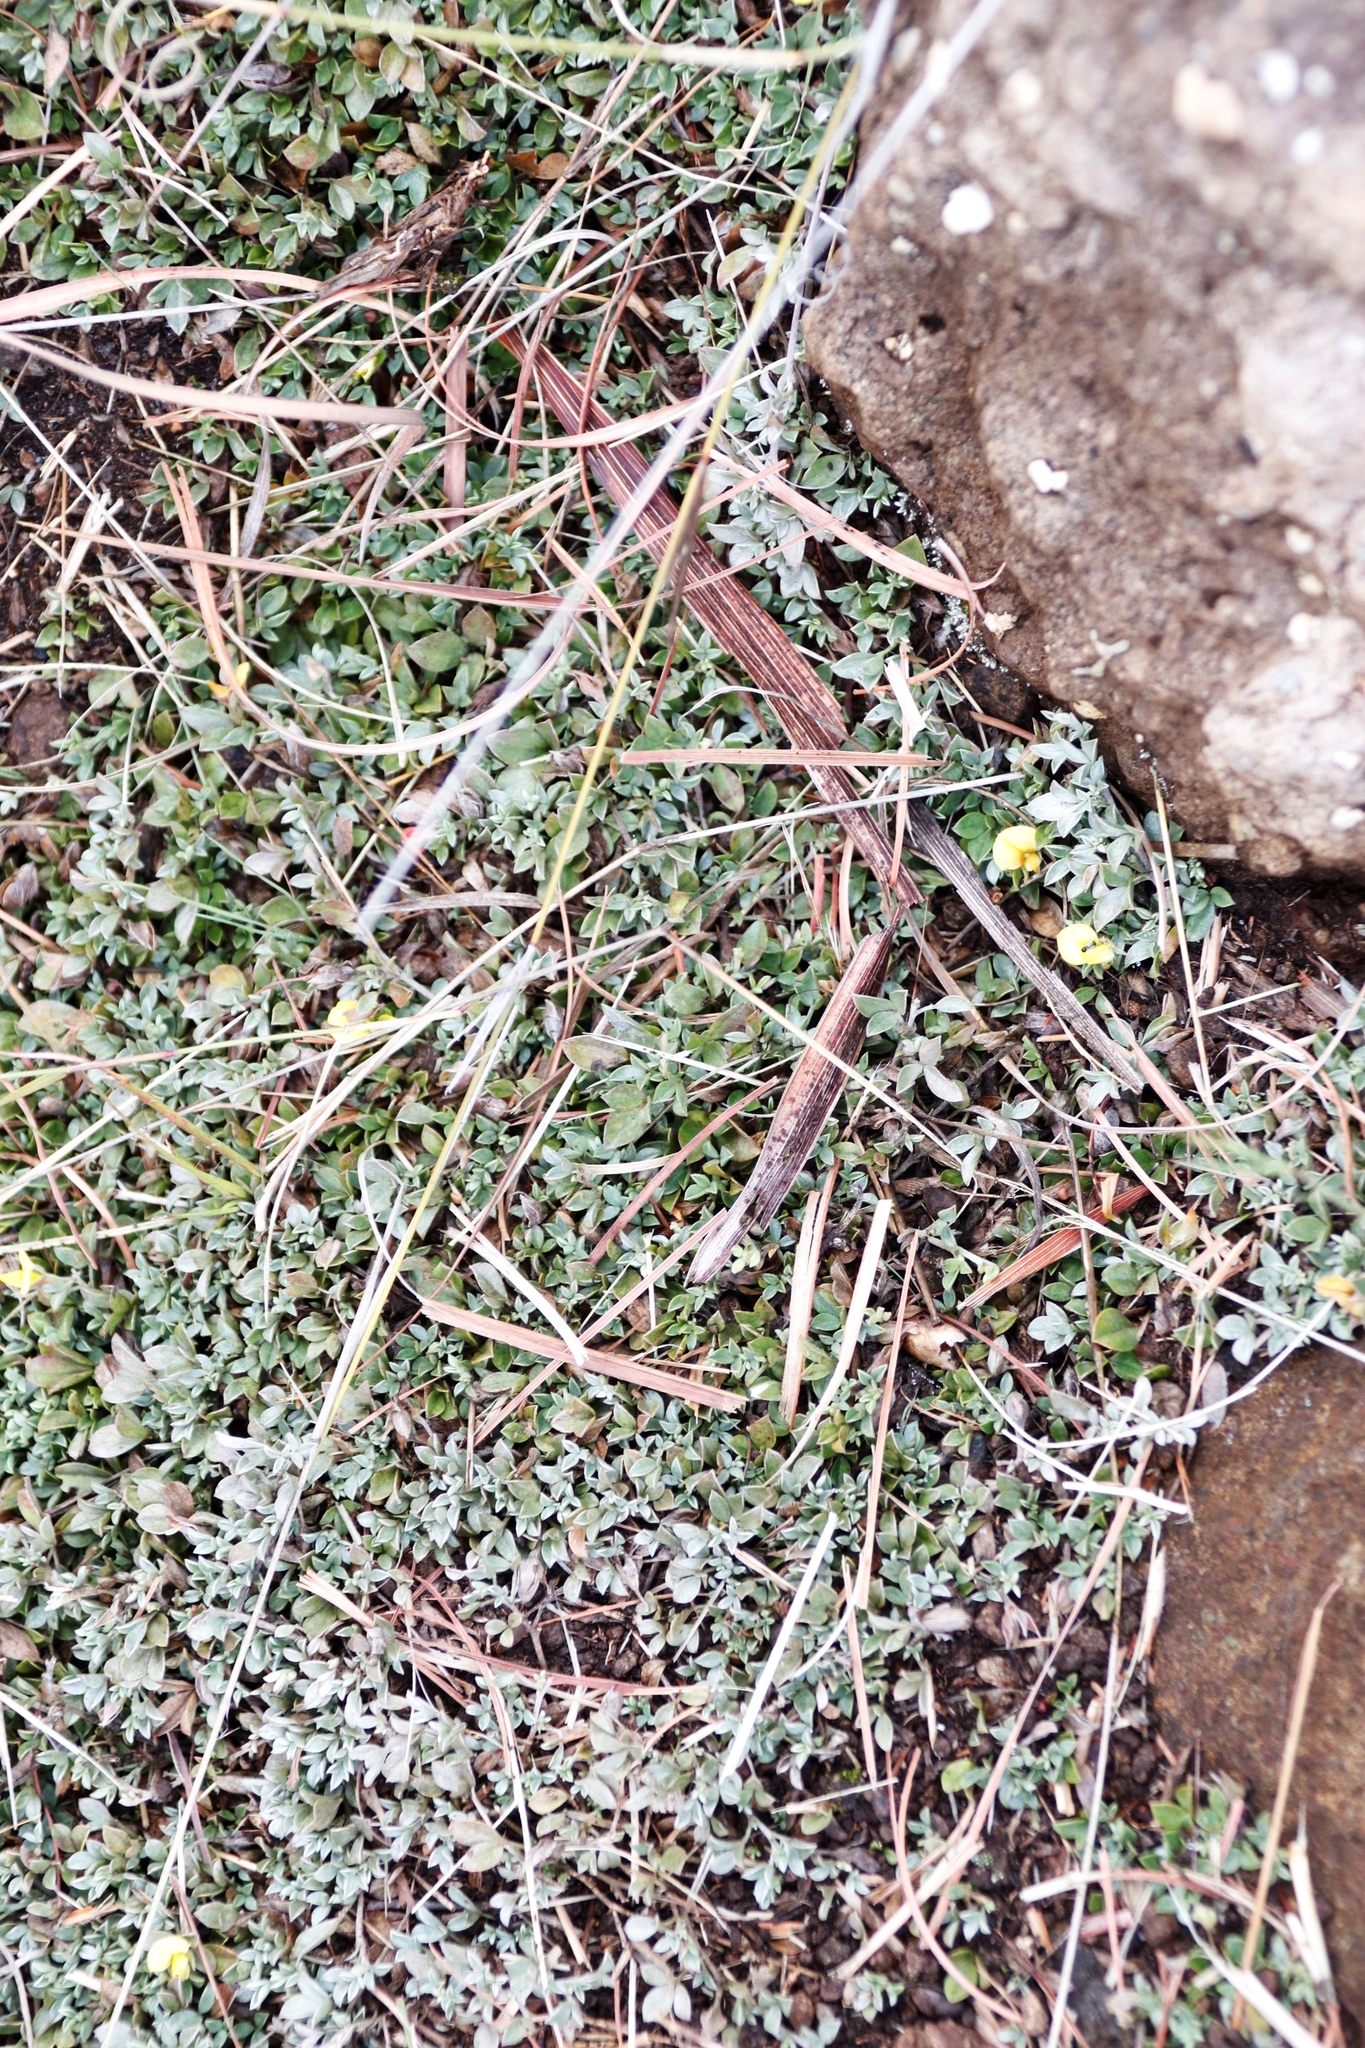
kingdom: Plantae
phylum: Tracheophyta
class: Magnoliopsida
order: Fabales
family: Fabaceae
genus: Lotononis
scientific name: Lotononis laxa
